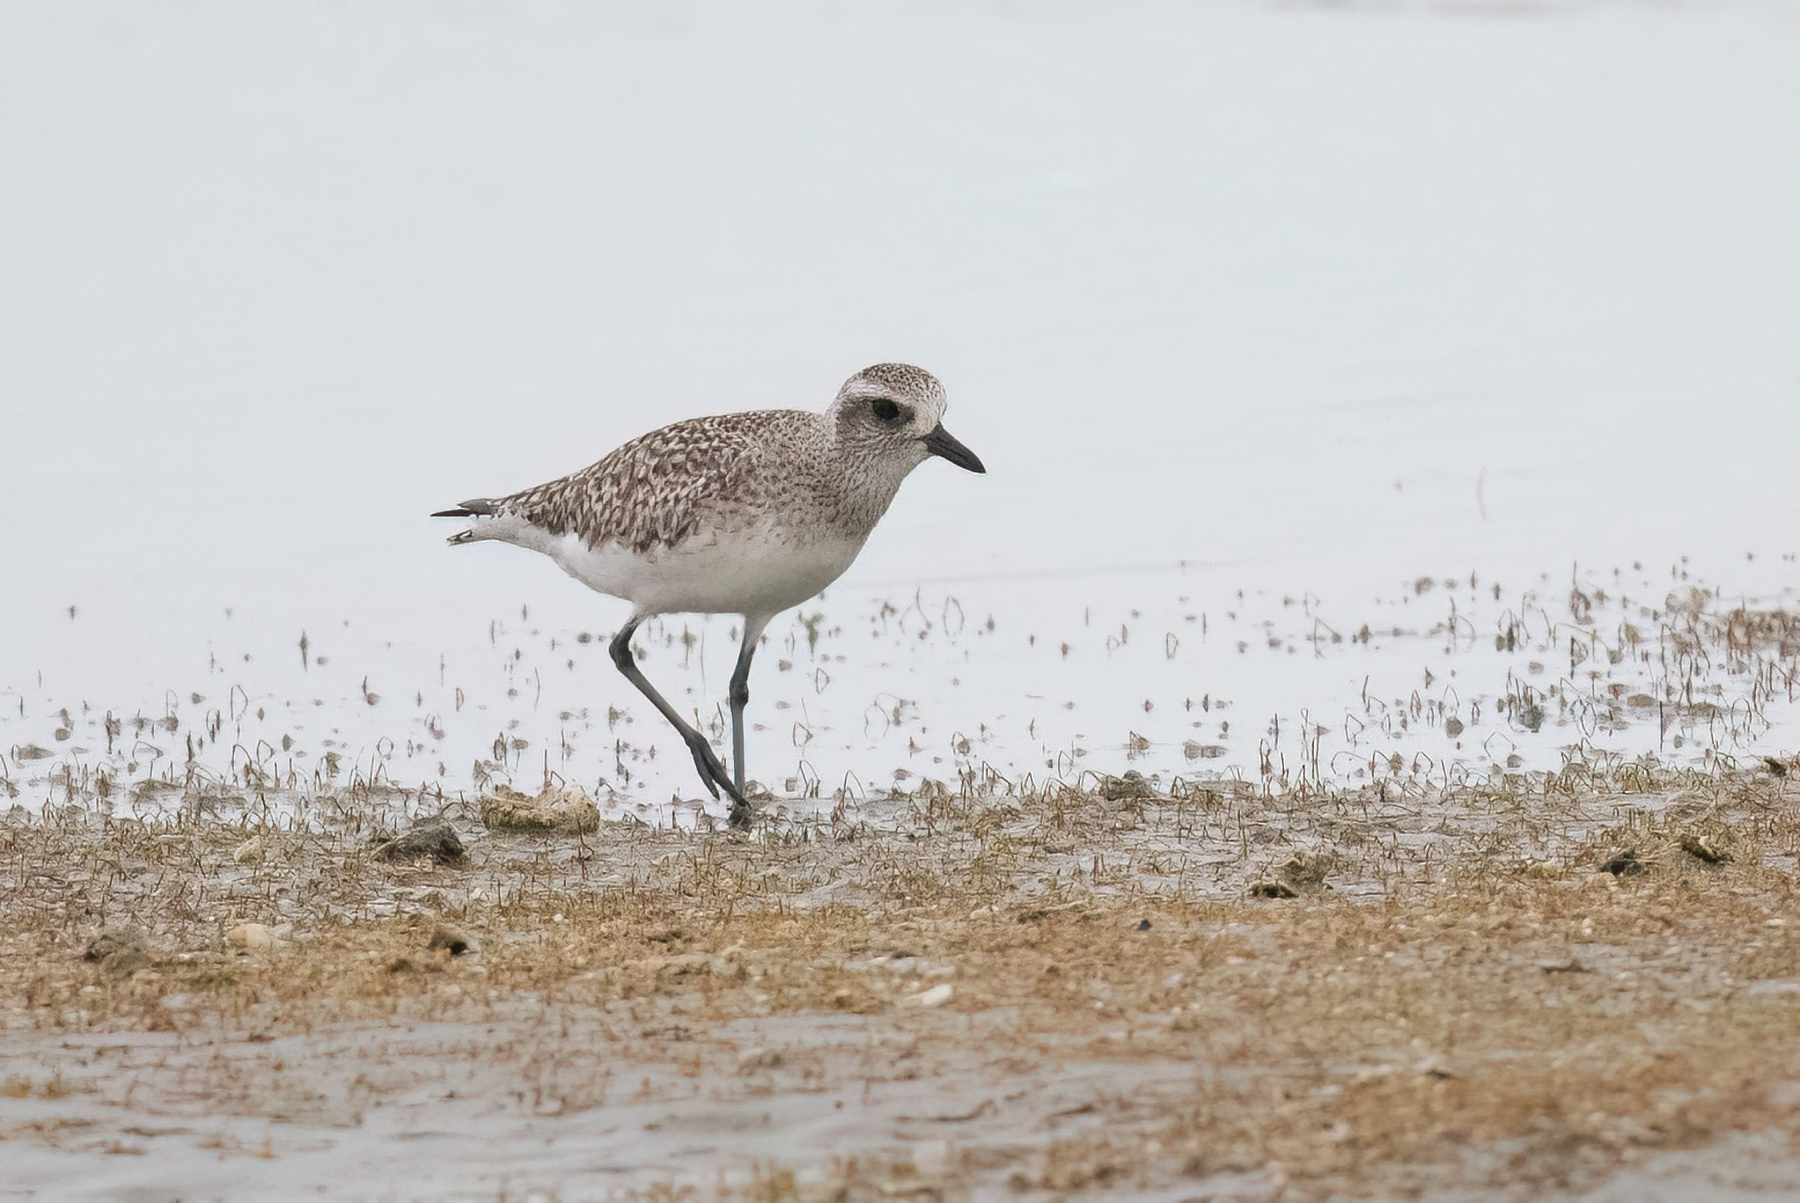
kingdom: Animalia
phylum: Chordata
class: Aves
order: Charadriiformes
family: Charadriidae
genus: Pluvialis
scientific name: Pluvialis squatarola
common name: Grey plover
